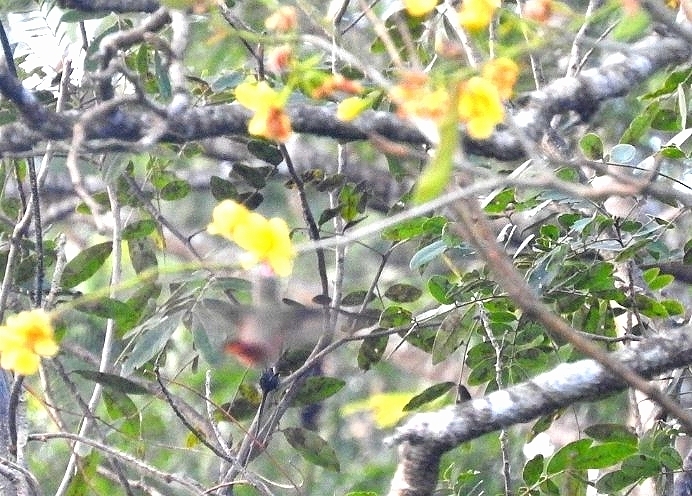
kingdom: Animalia
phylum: Chordata
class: Aves
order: Apodiformes
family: Trochilidae
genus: Amazilia
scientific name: Amazilia rutila
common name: Cinnamon hummingbird
